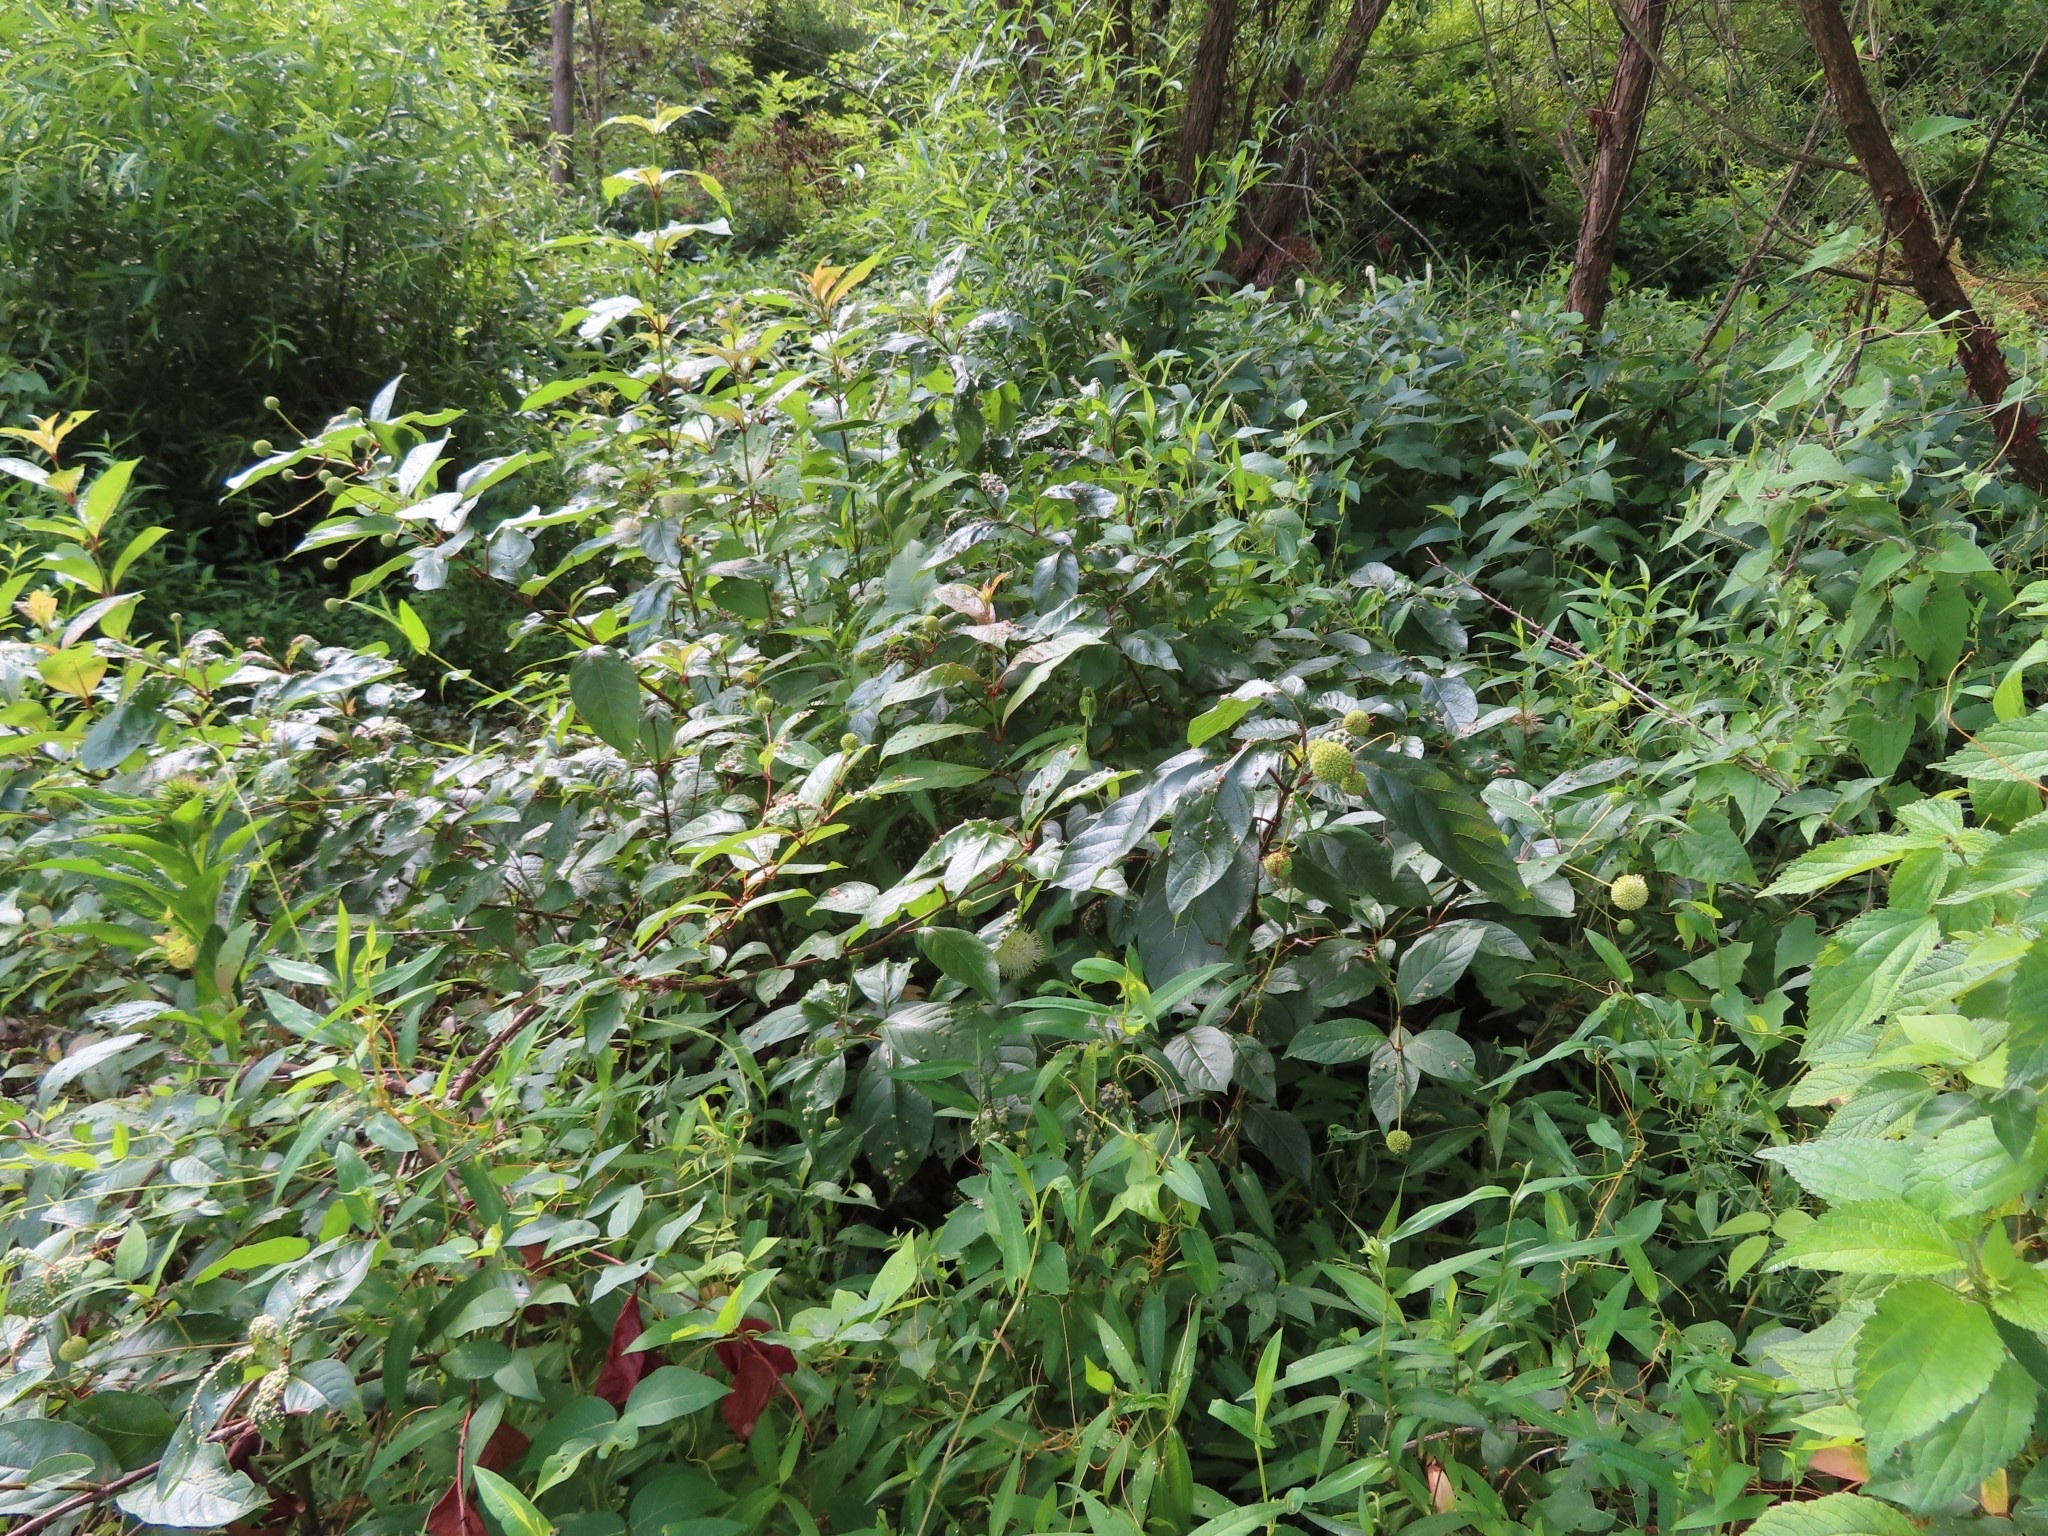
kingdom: Plantae
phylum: Tracheophyta
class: Magnoliopsida
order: Gentianales
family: Rubiaceae
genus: Cephalanthus
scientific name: Cephalanthus occidentalis
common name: Button-willow
